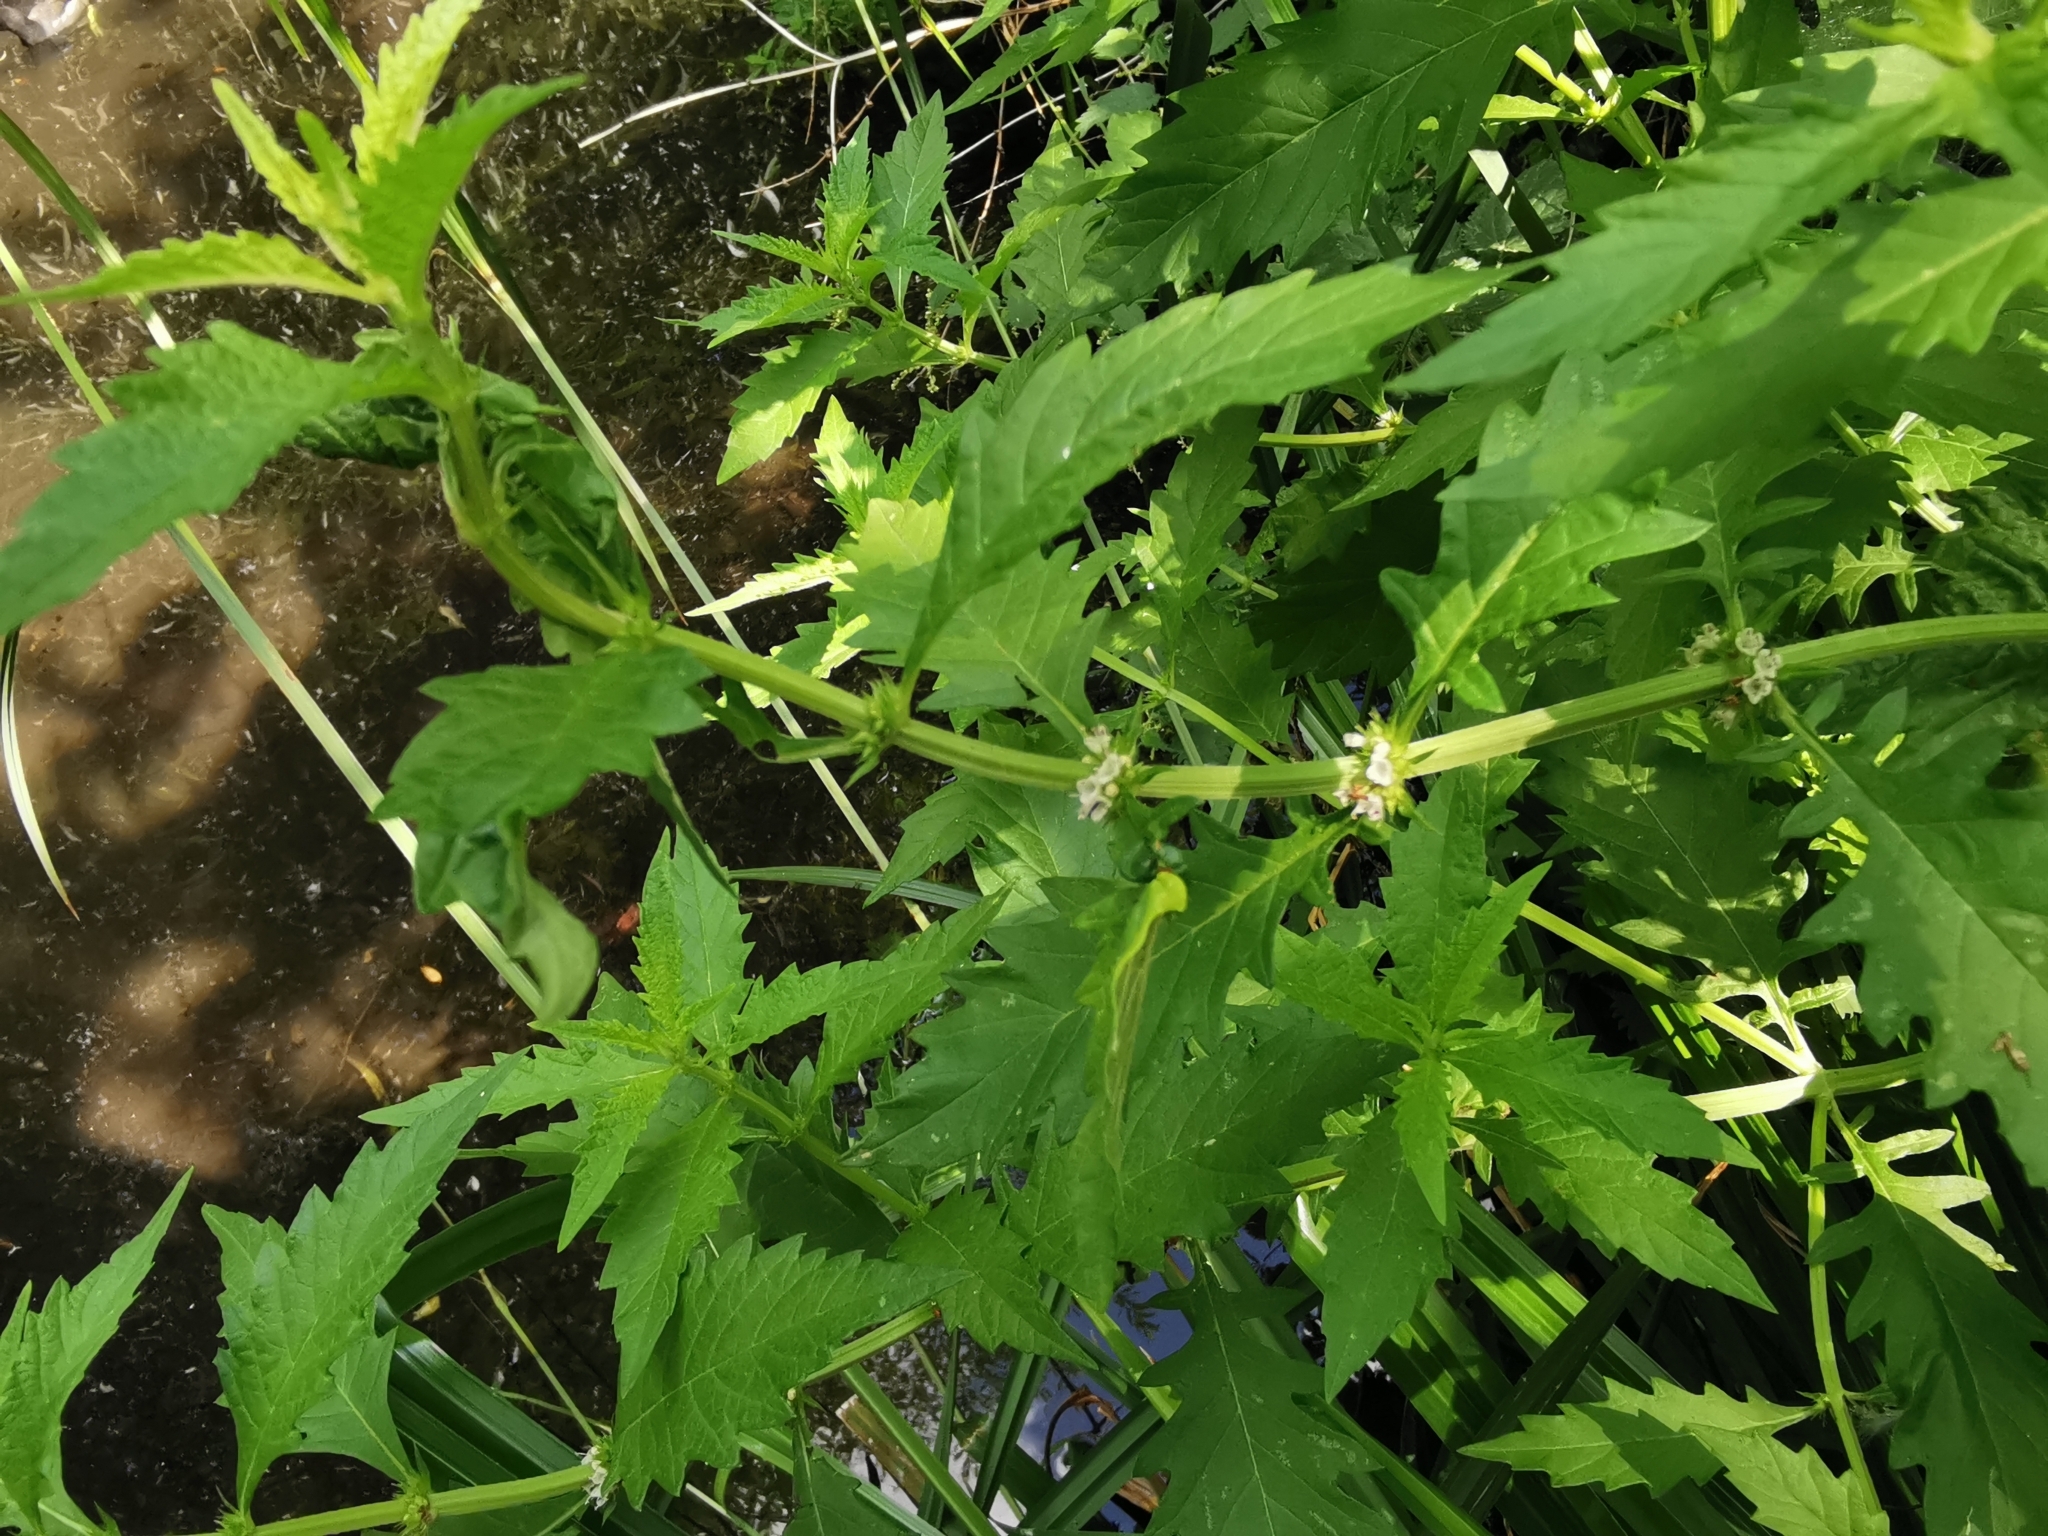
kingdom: Plantae
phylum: Tracheophyta
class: Magnoliopsida
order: Lamiales
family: Lamiaceae
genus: Lycopus
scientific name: Lycopus europaeus
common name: European bugleweed
